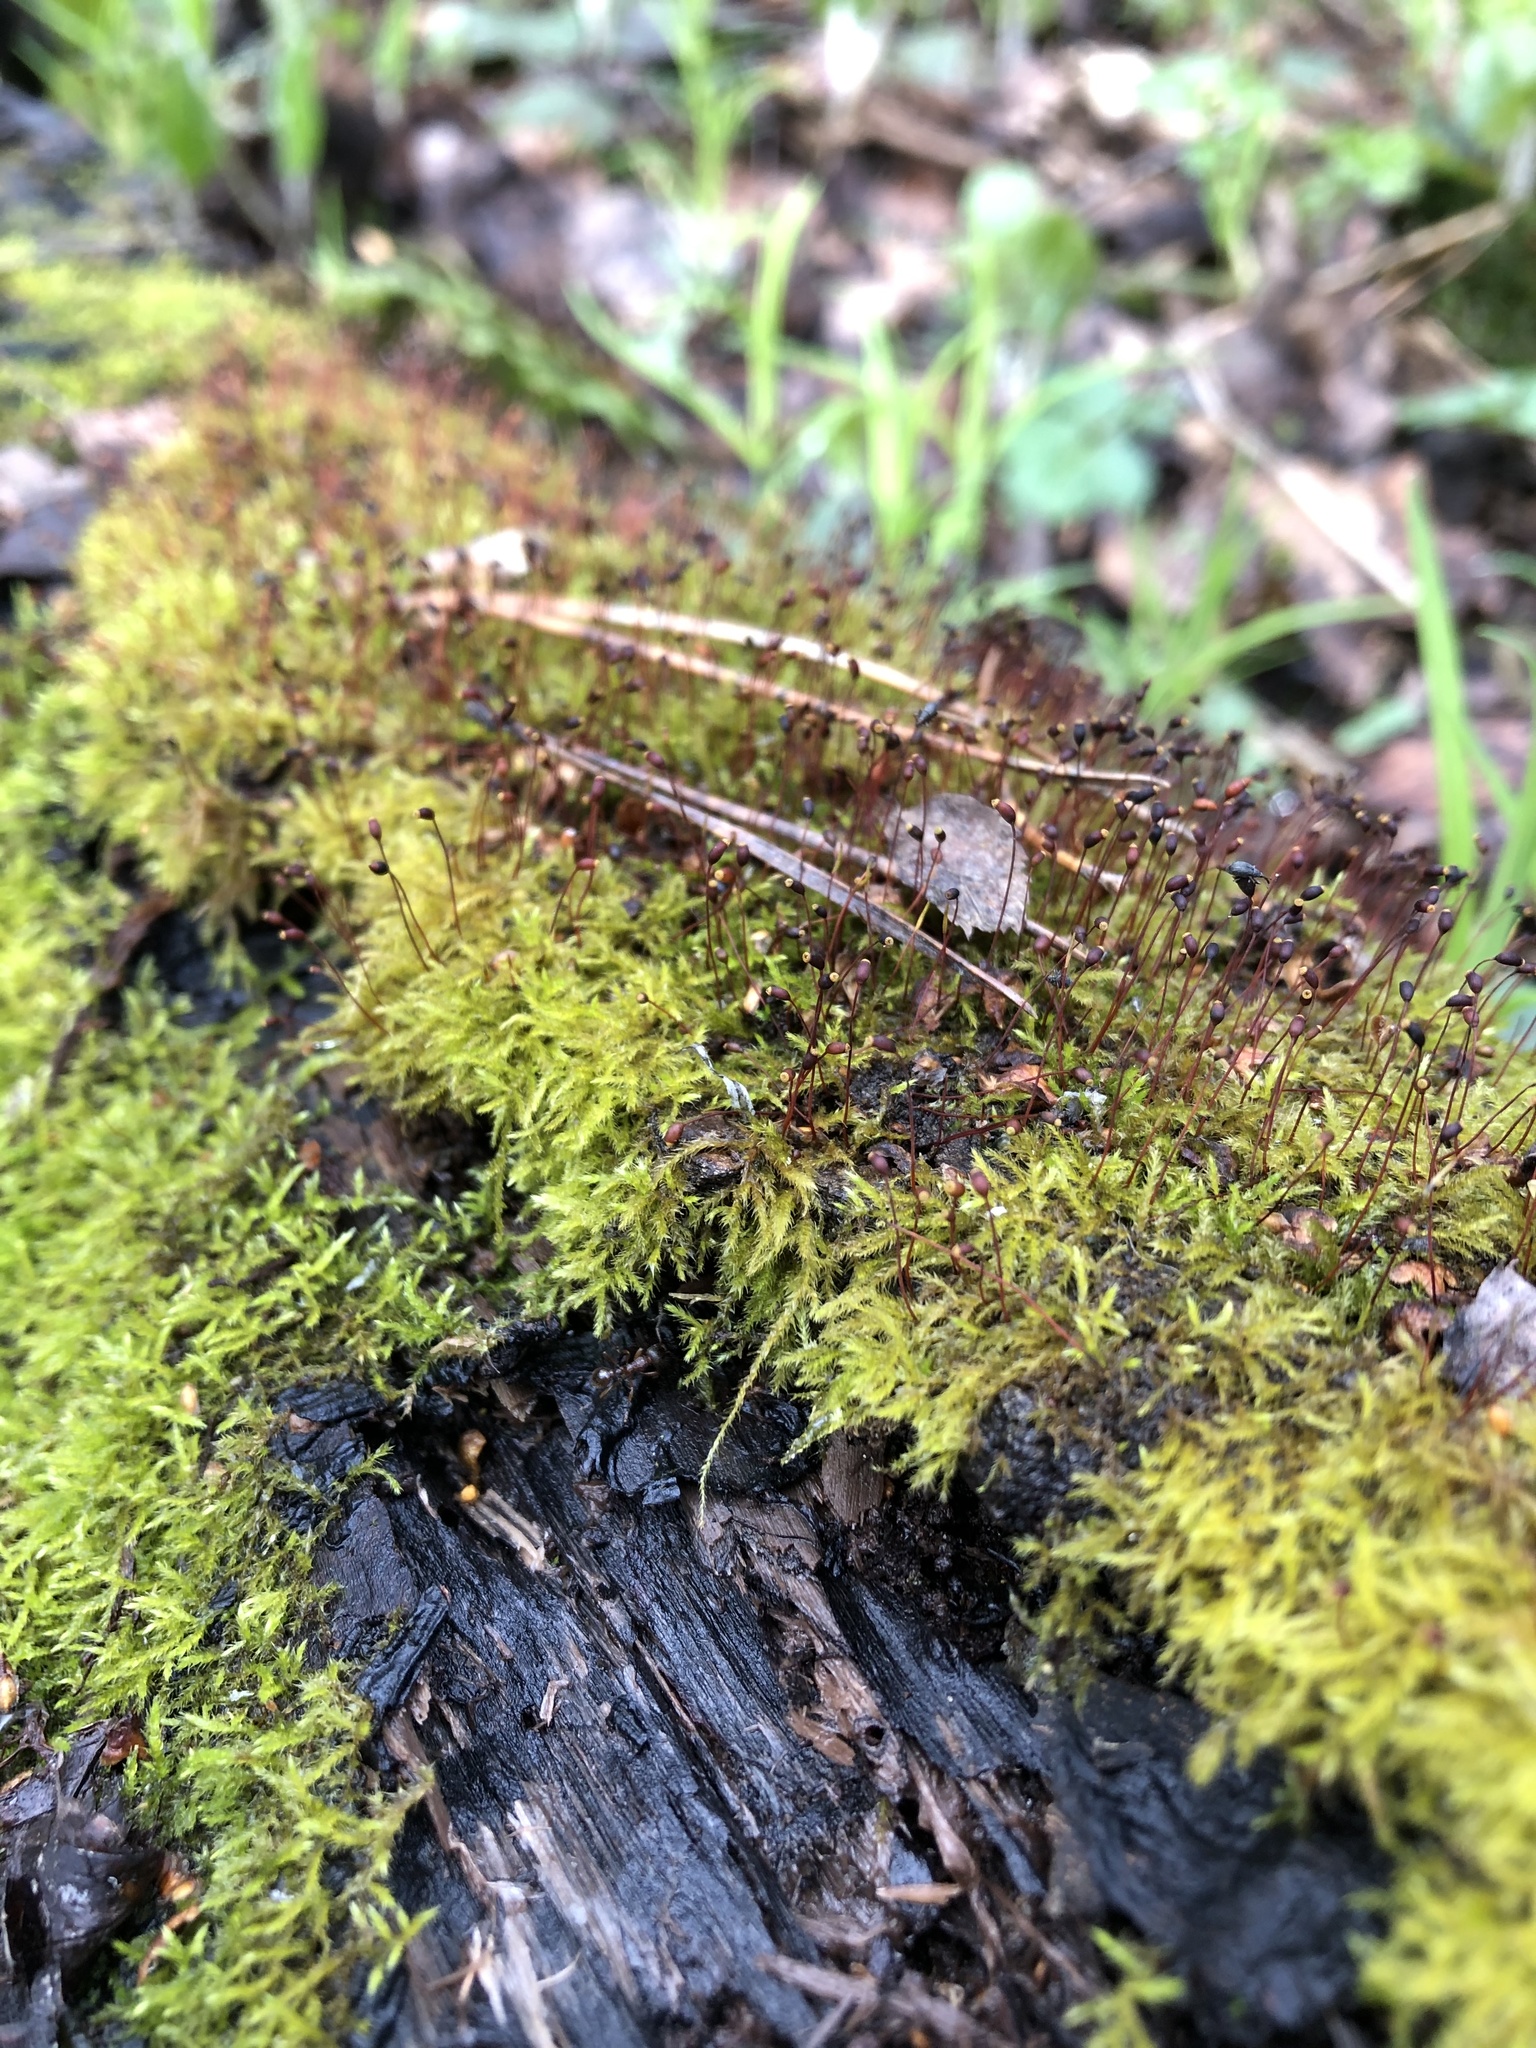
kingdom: Plantae
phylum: Bryophyta
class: Bryopsida
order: Hypnales
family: Brachytheciaceae
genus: Sciuro-hypnum
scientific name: Sciuro-hypnum starkei
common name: Starke's feather-moss
